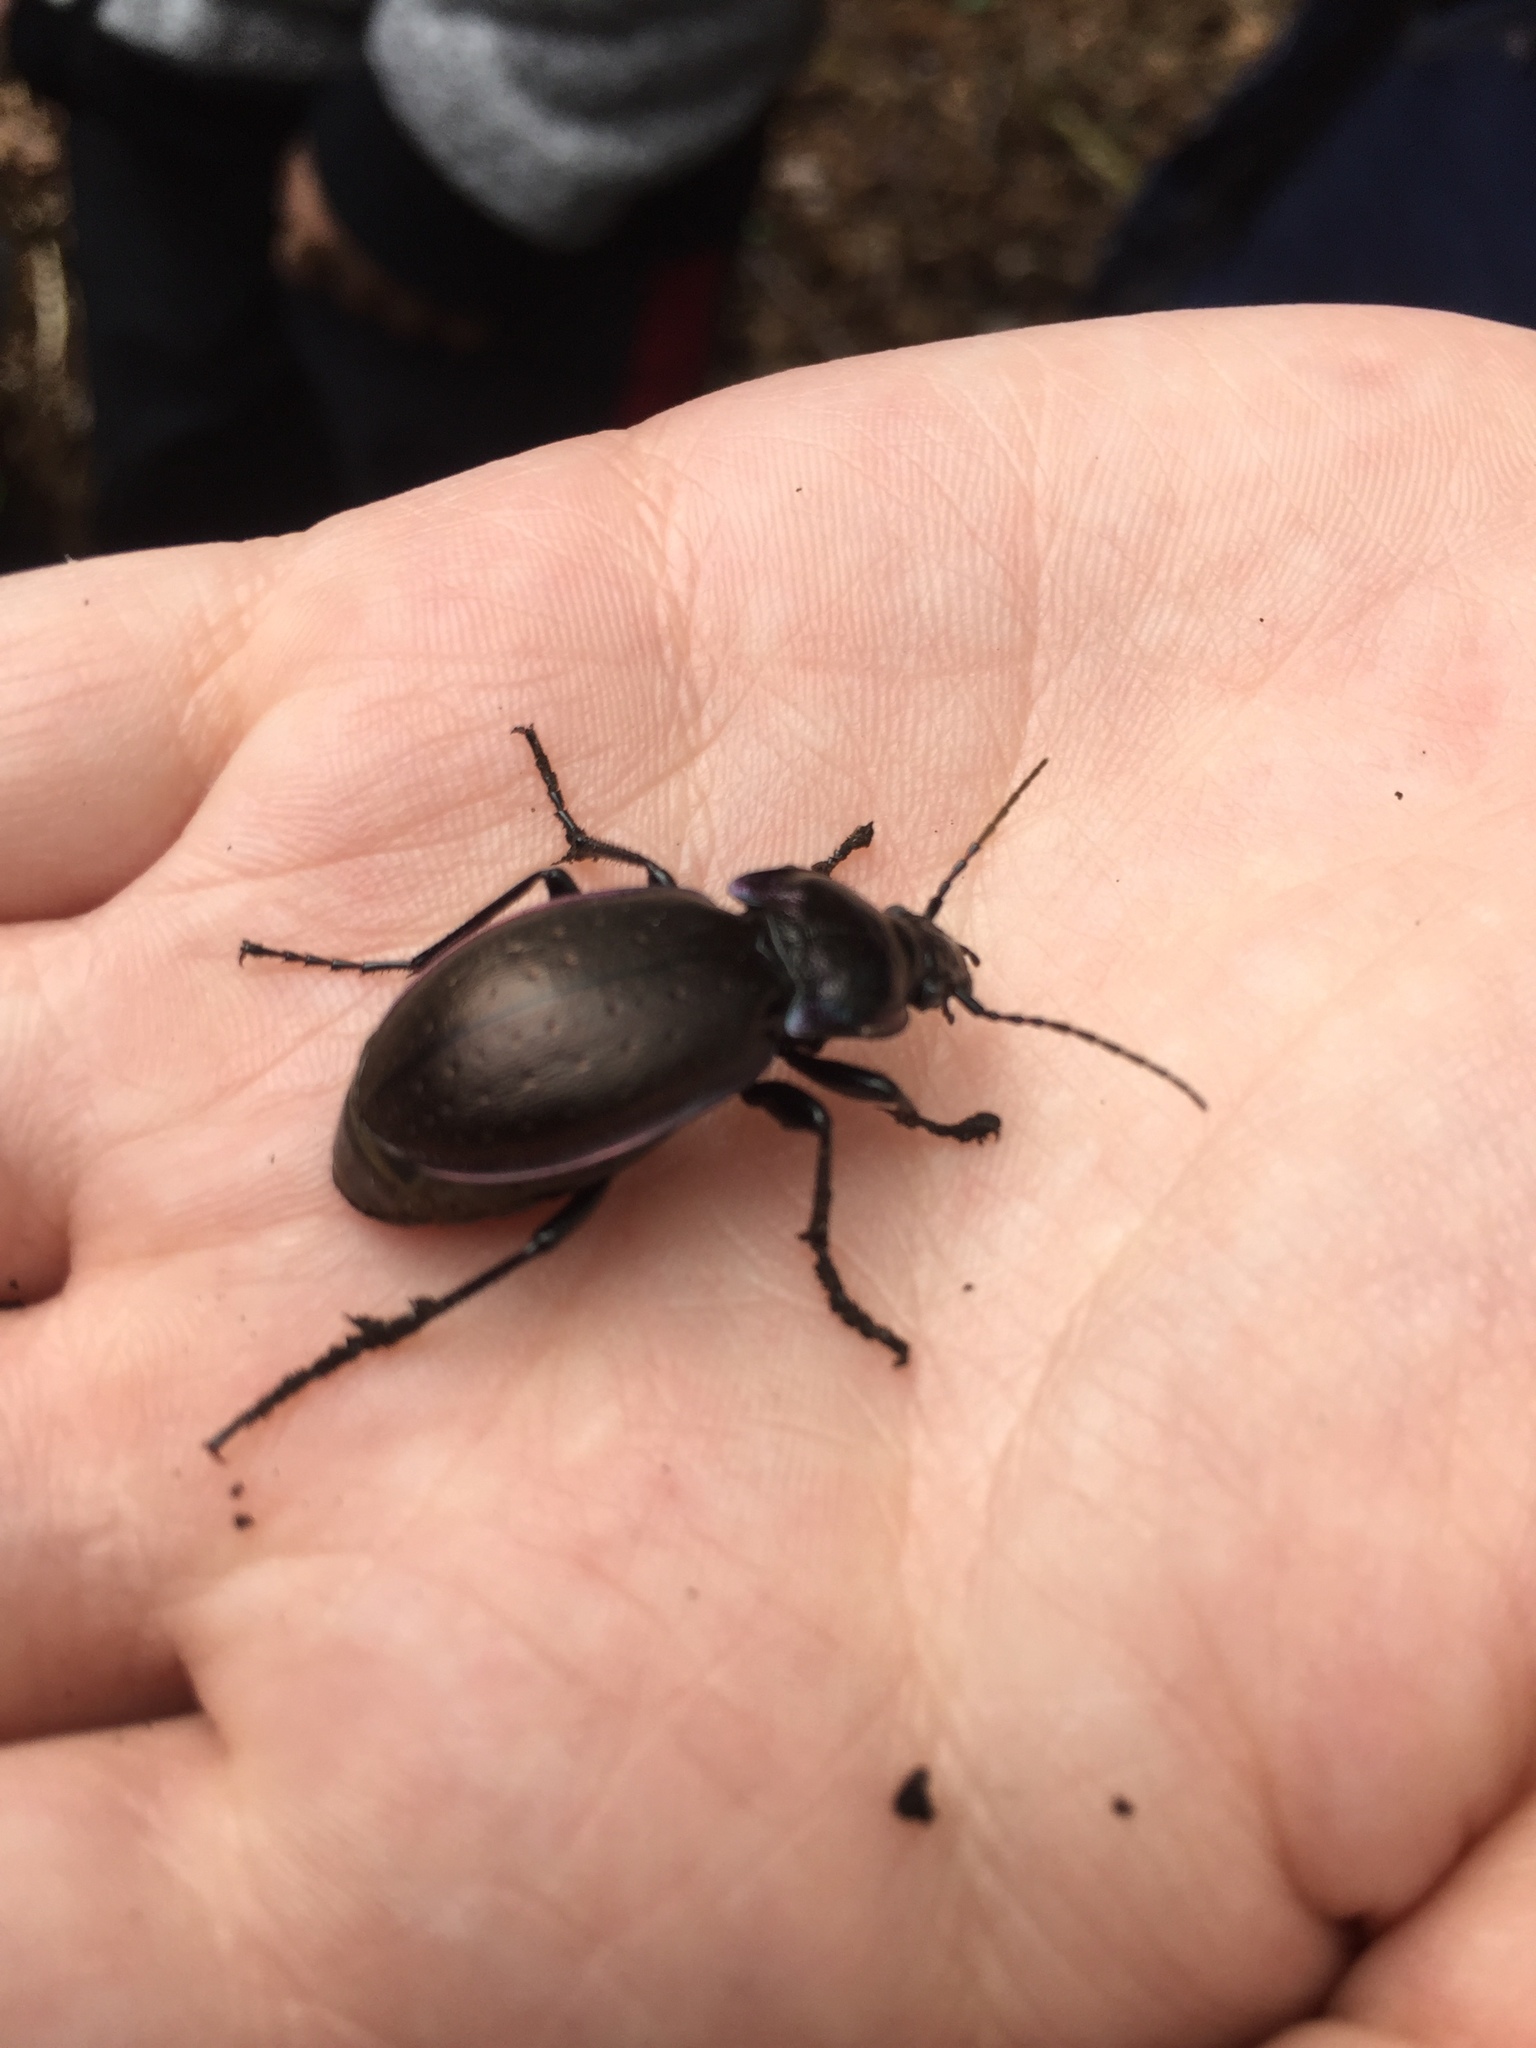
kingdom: Animalia
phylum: Arthropoda
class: Insecta
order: Coleoptera
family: Carabidae
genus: Carabus
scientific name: Carabus nemoralis
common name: European ground beetle
